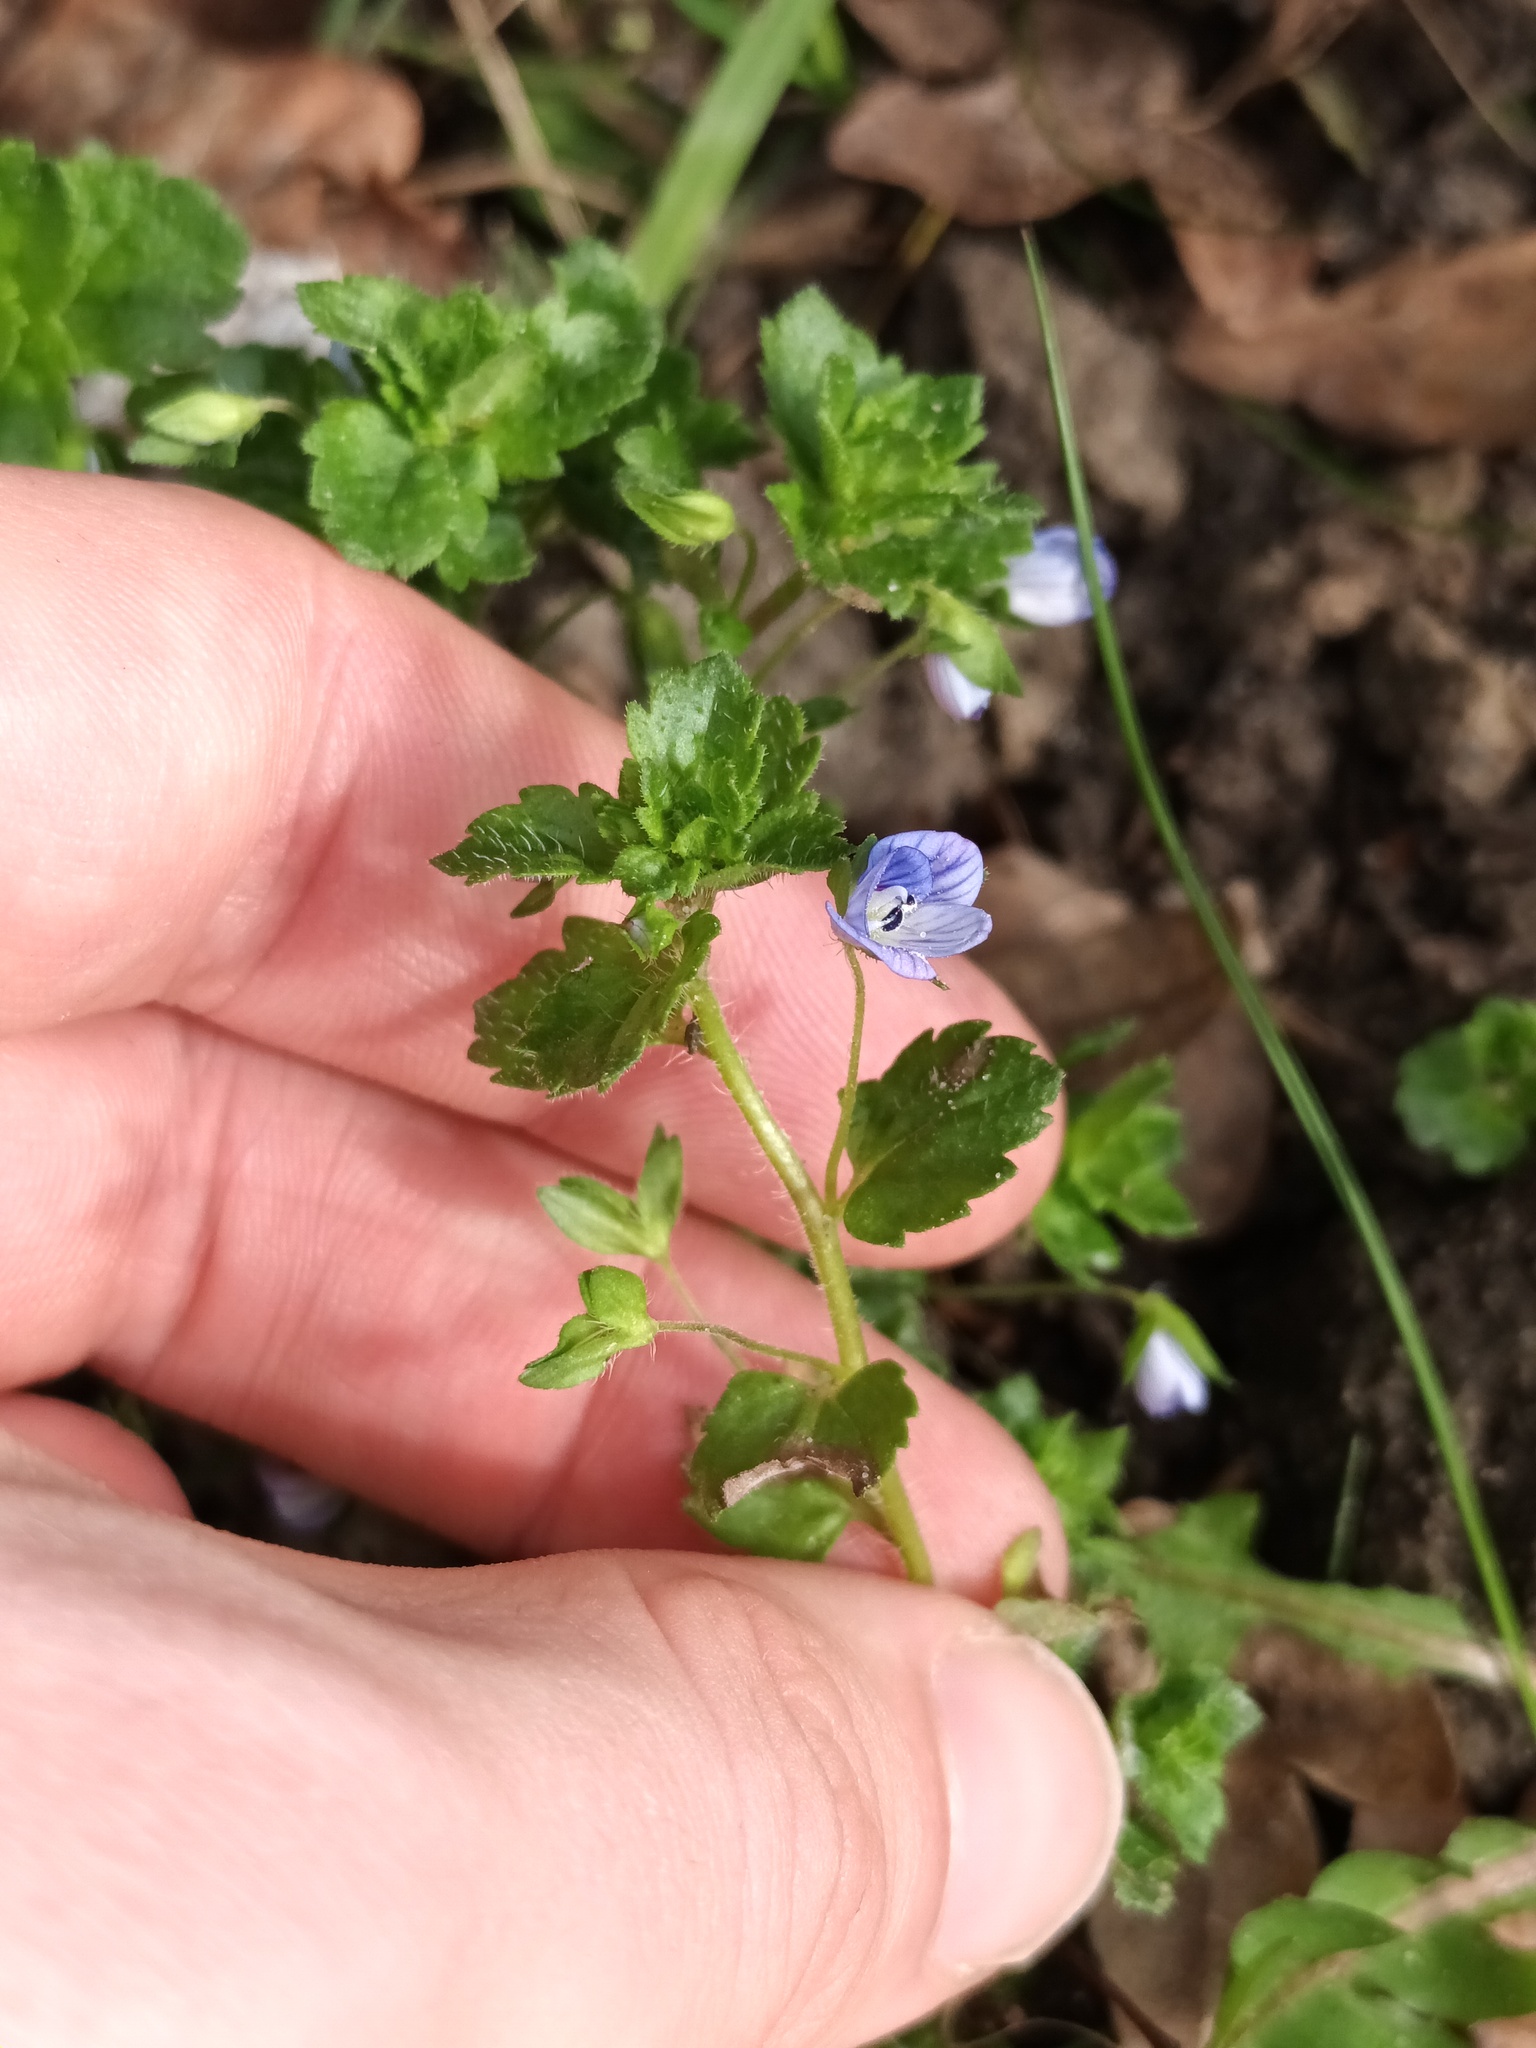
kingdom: Plantae
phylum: Tracheophyta
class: Magnoliopsida
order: Lamiales
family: Plantaginaceae
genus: Veronica
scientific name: Veronica persica
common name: Common field-speedwell
